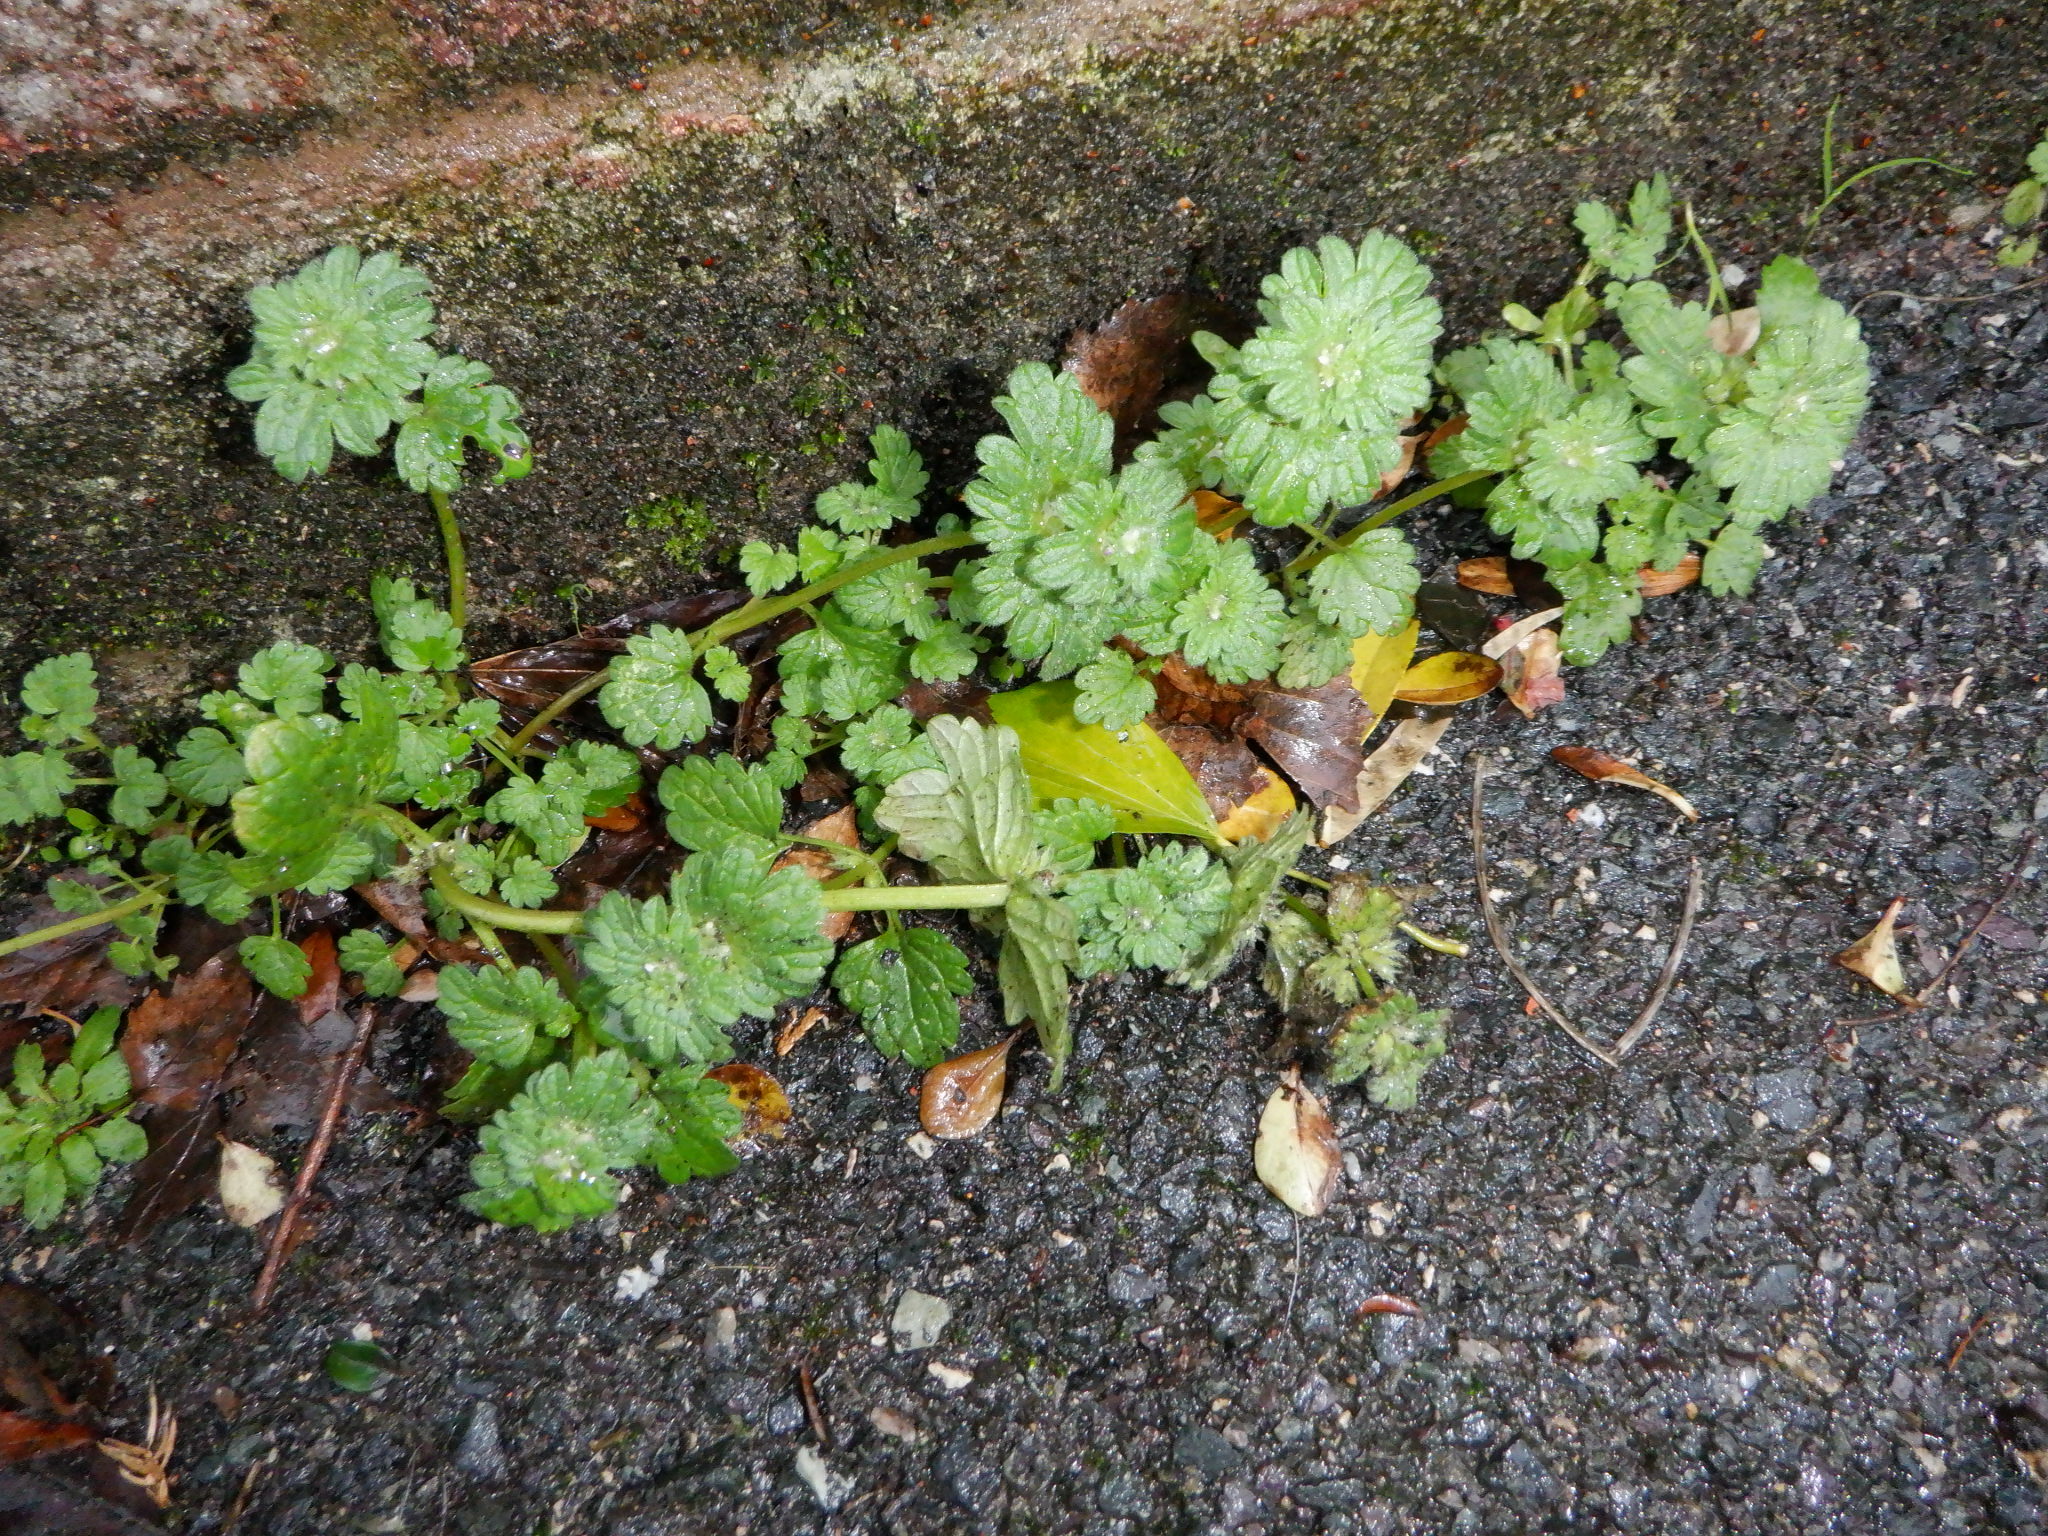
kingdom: Plantae
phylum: Tracheophyta
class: Magnoliopsida
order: Lamiales
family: Lamiaceae
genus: Lamium
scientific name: Lamium amplexicaule
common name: Henbit dead-nettle
